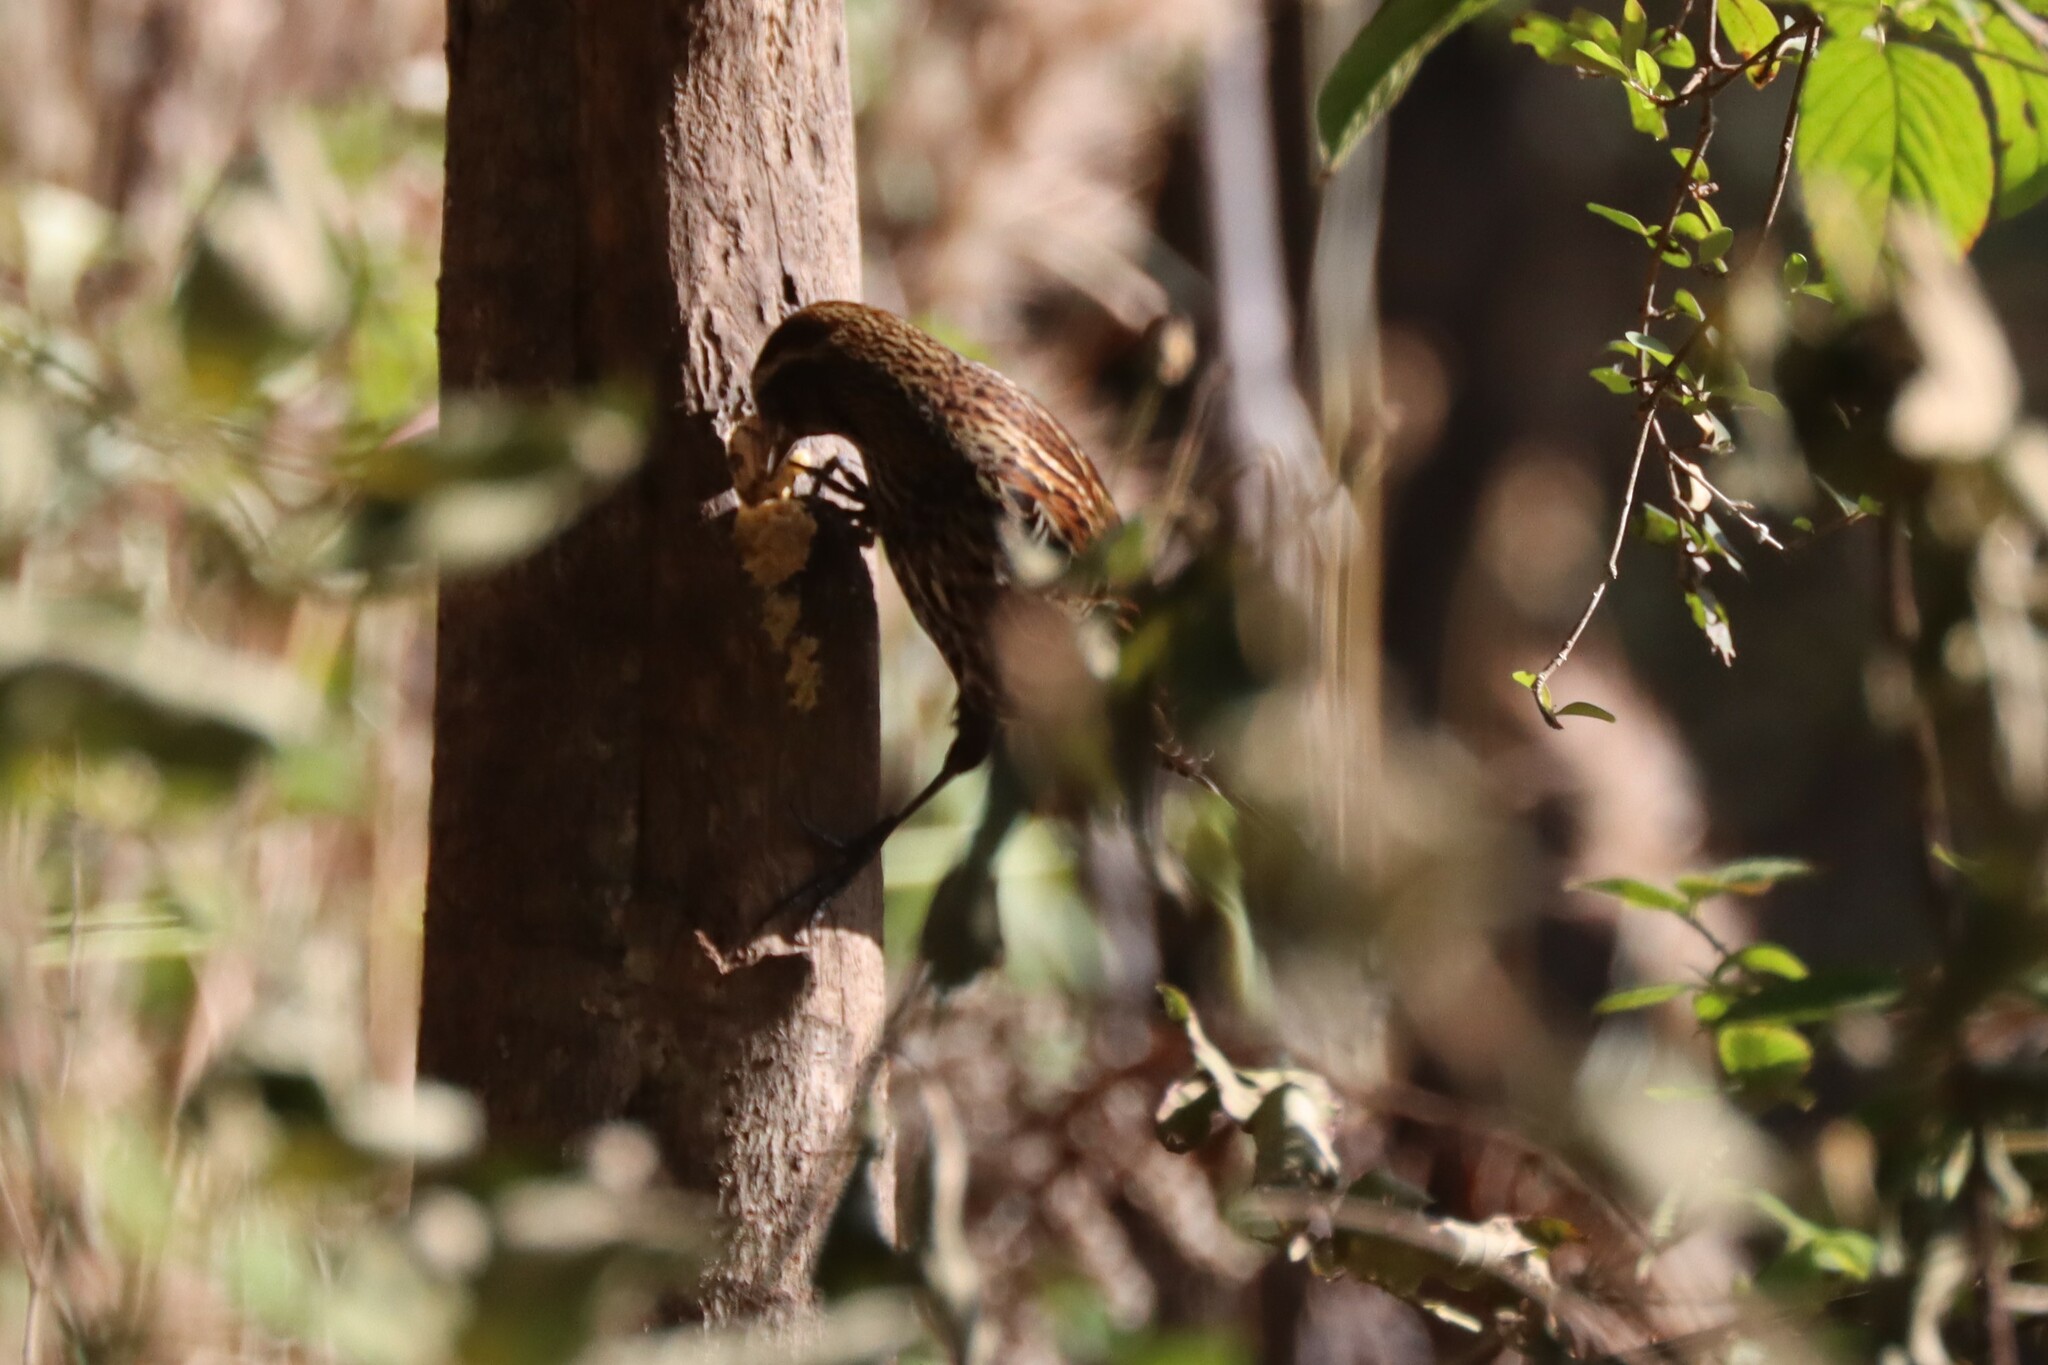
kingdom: Animalia
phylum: Chordata
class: Aves
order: Passeriformes
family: Icteridae
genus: Agelaius
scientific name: Agelaius phoeniceus
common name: Red-winged blackbird
